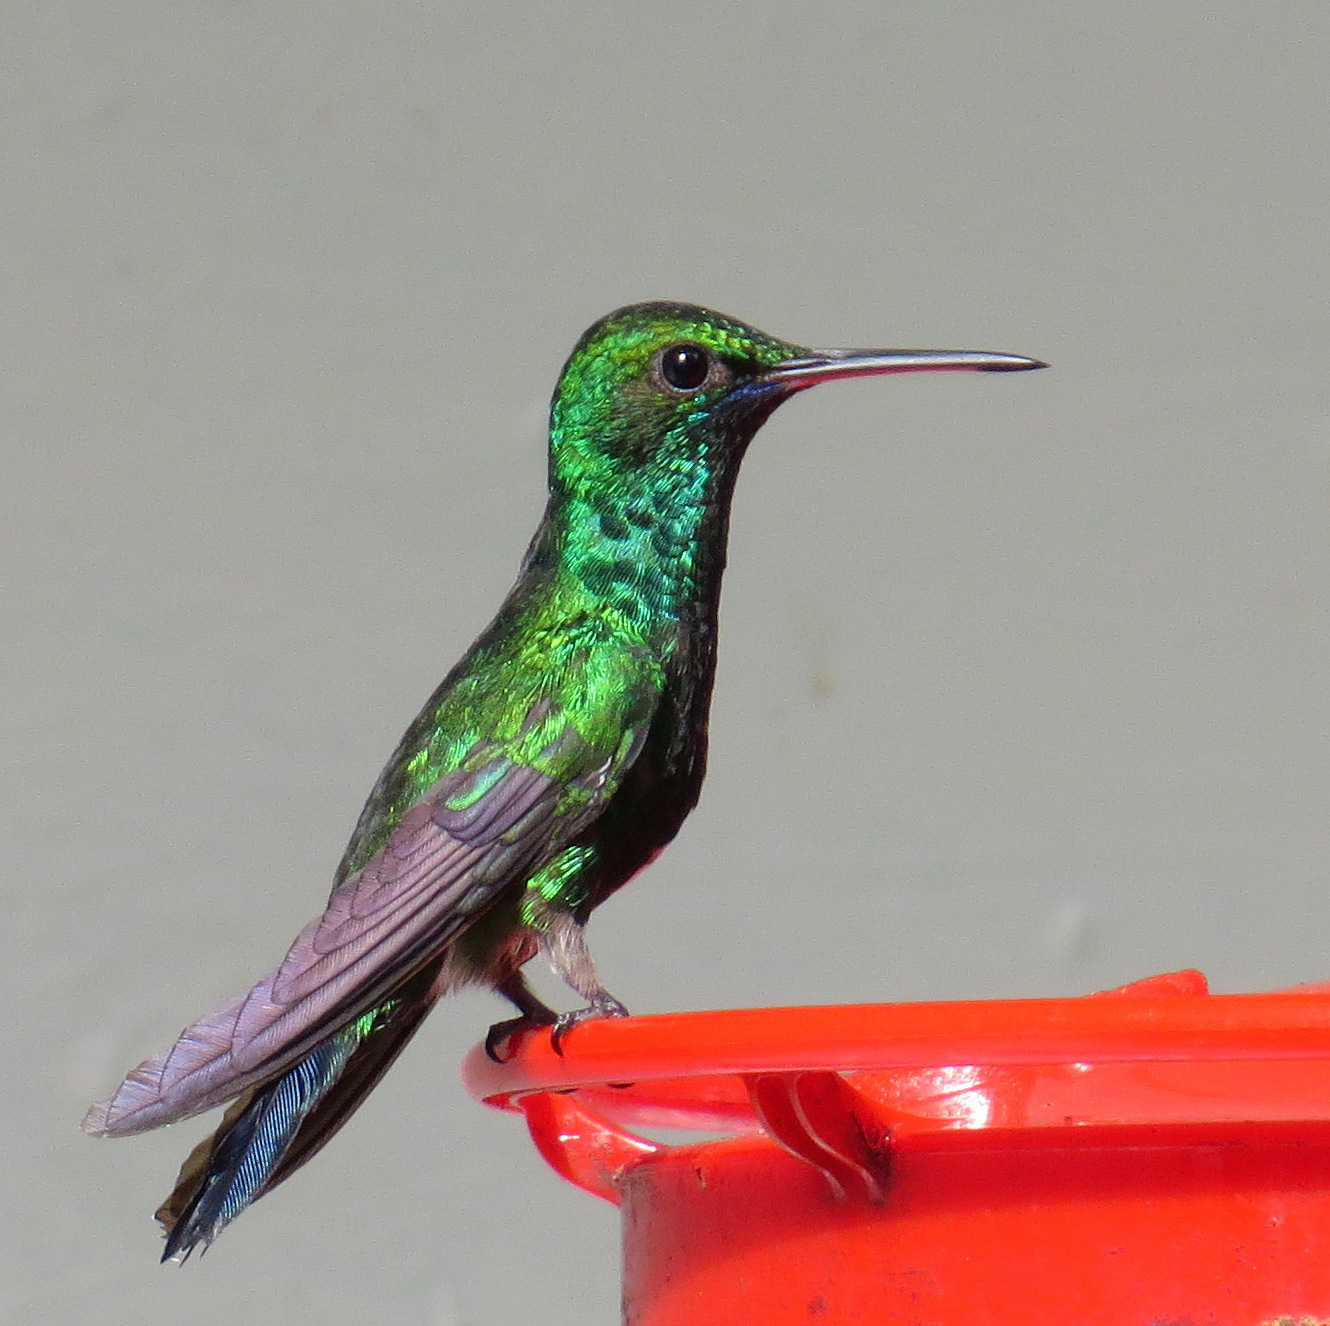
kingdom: Animalia
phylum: Chordata
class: Aves
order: Apodiformes
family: Trochilidae
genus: Chlorestes
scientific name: Chlorestes notata
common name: Blue-chinned sapphire
